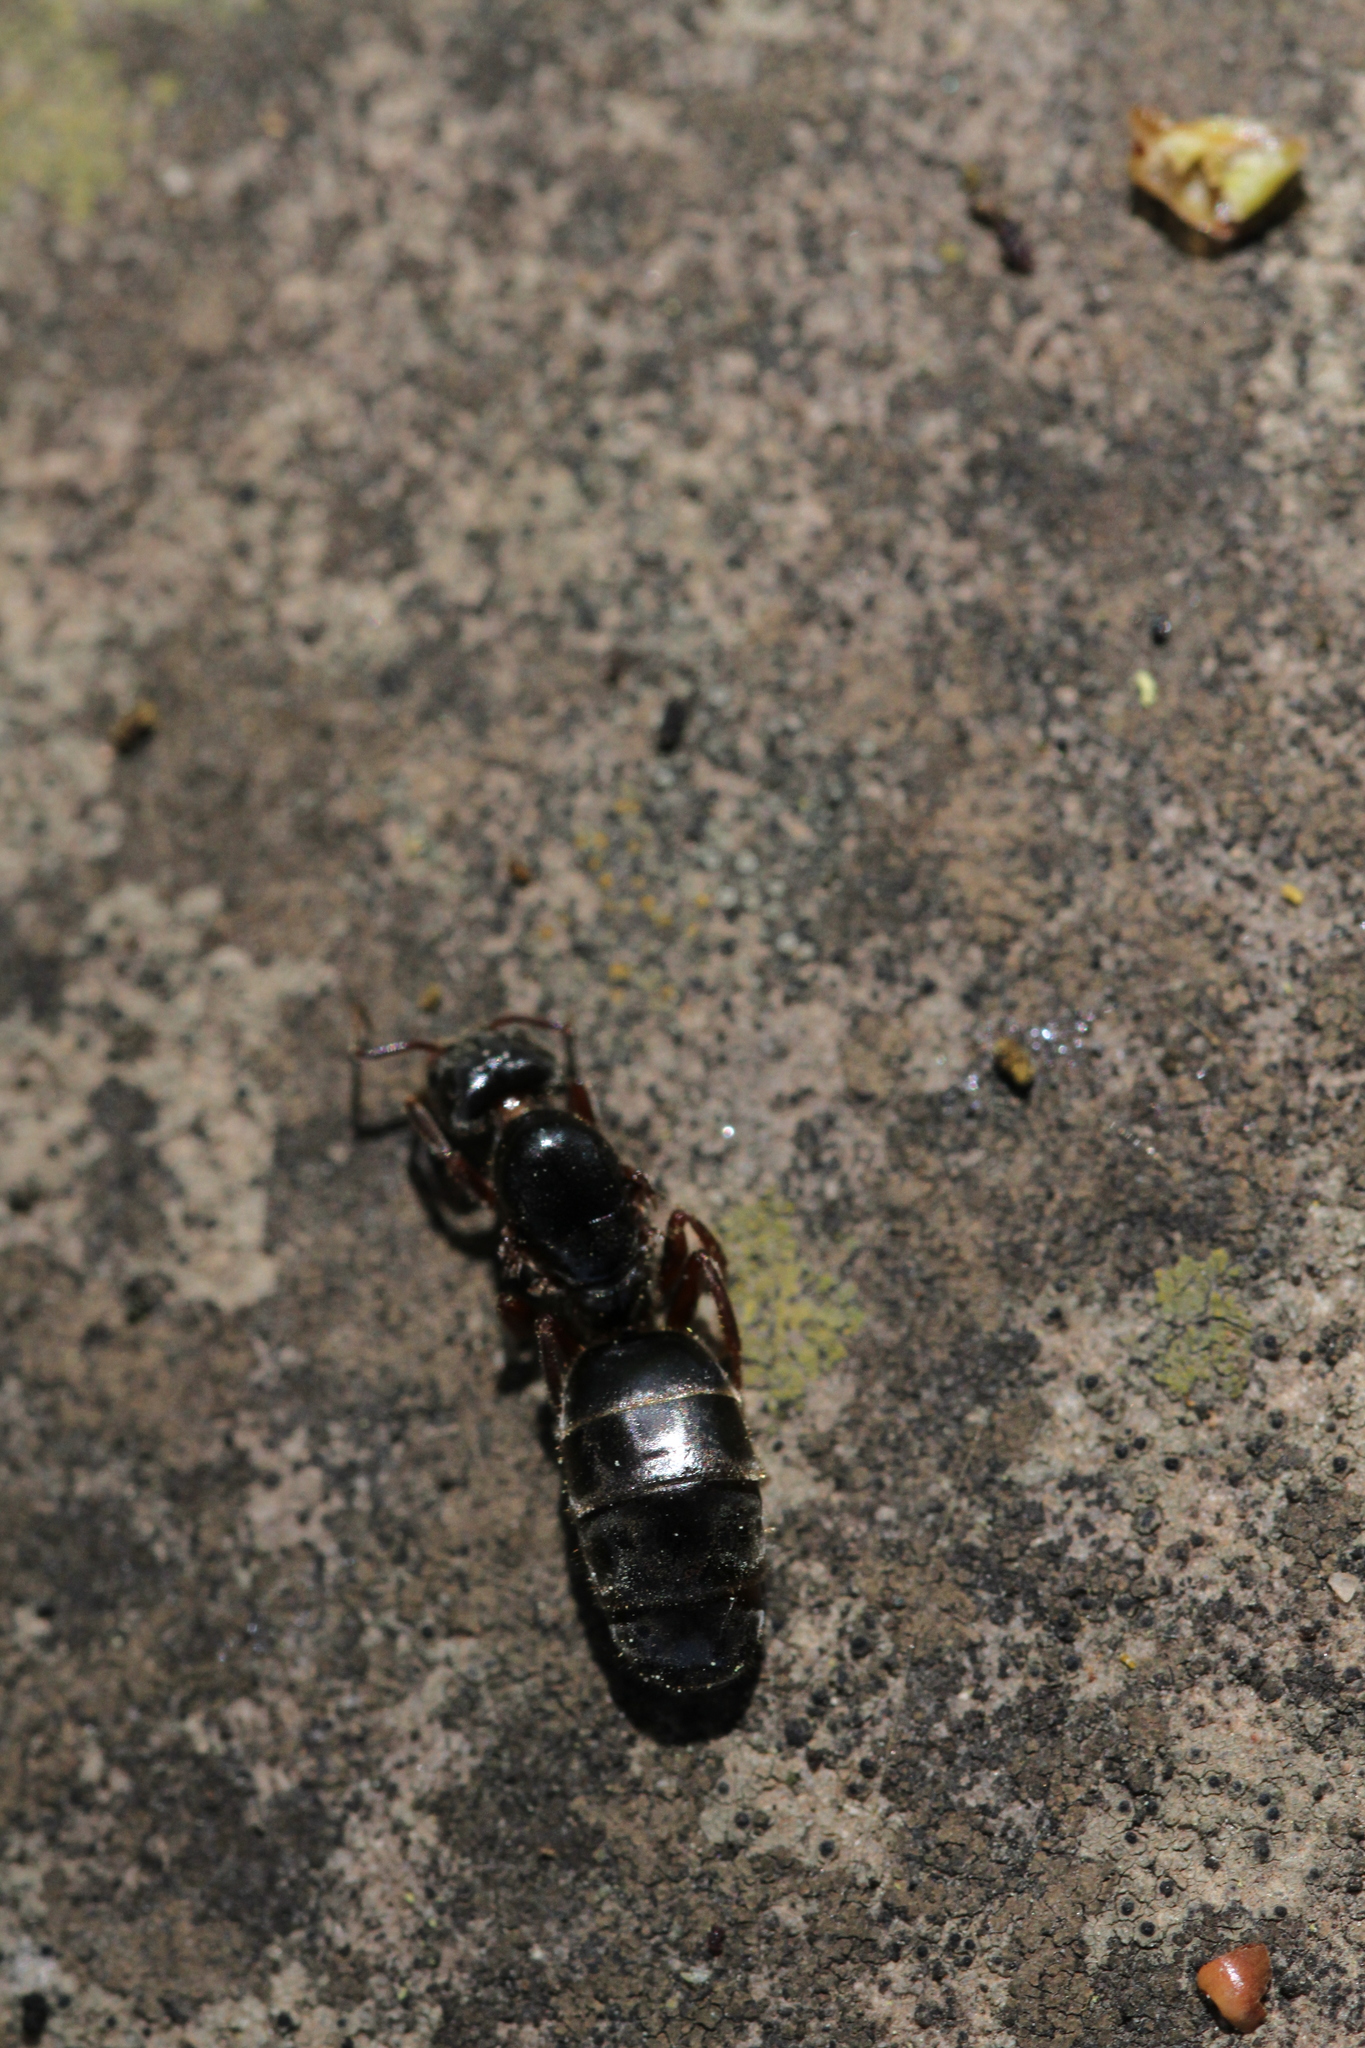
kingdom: Animalia
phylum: Arthropoda
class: Insecta
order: Hymenoptera
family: Formicidae
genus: Liometopum
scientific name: Liometopum occidentale
